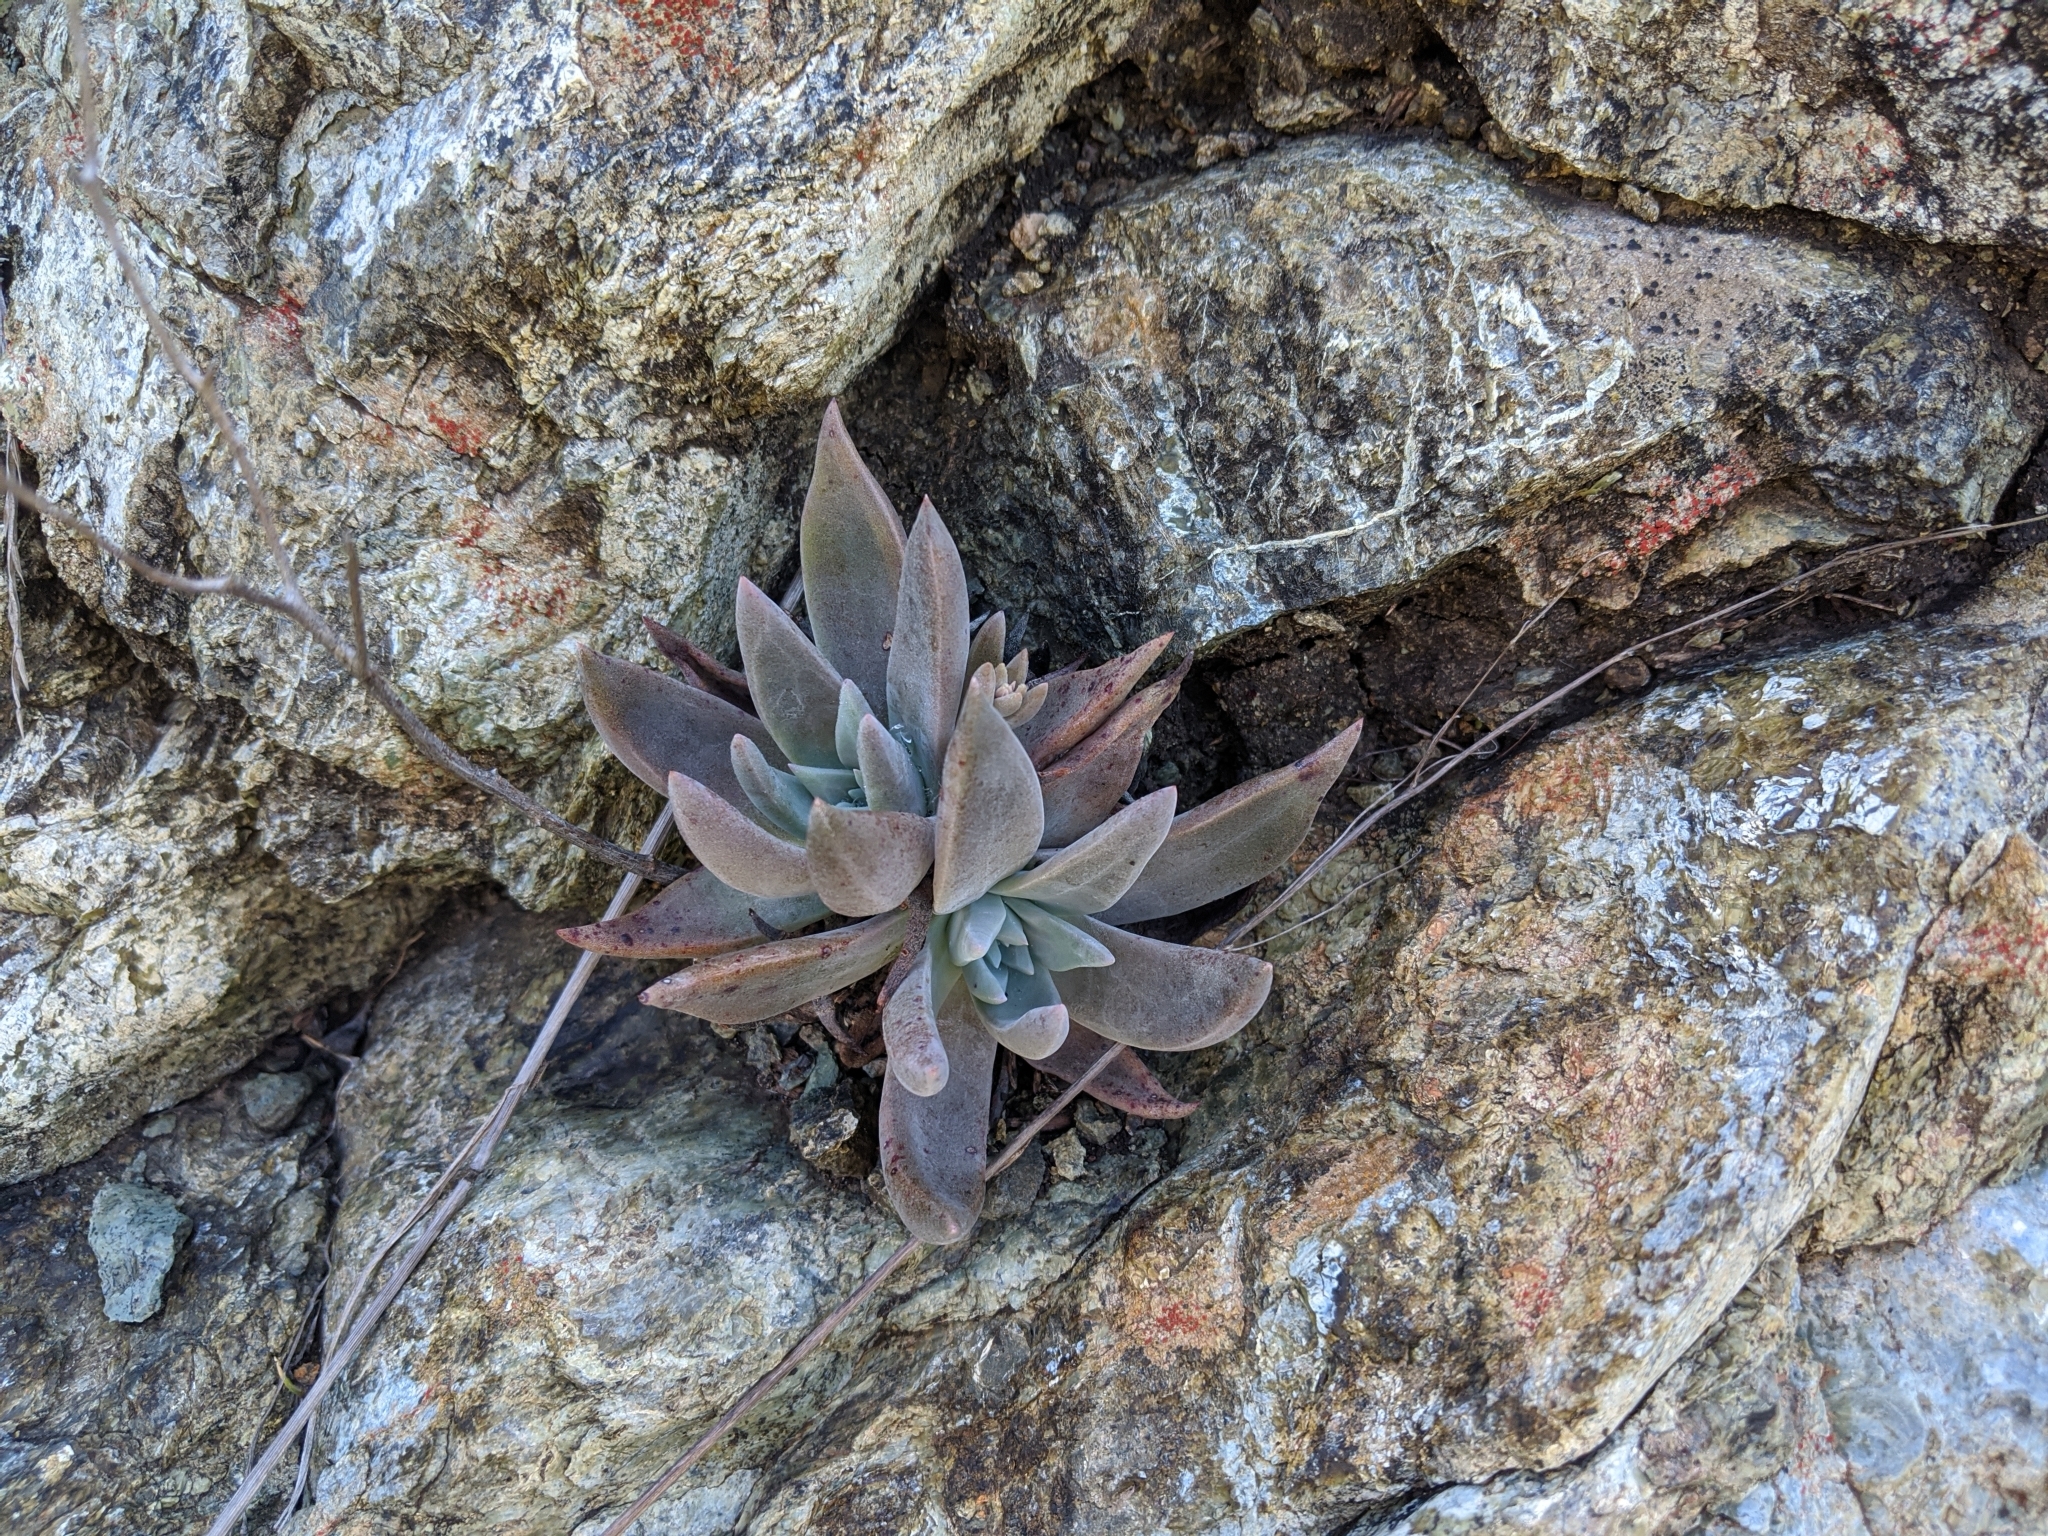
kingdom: Plantae
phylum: Tracheophyta
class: Magnoliopsida
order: Saxifragales
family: Crassulaceae
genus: Dudleya
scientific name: Dudleya abramsii
